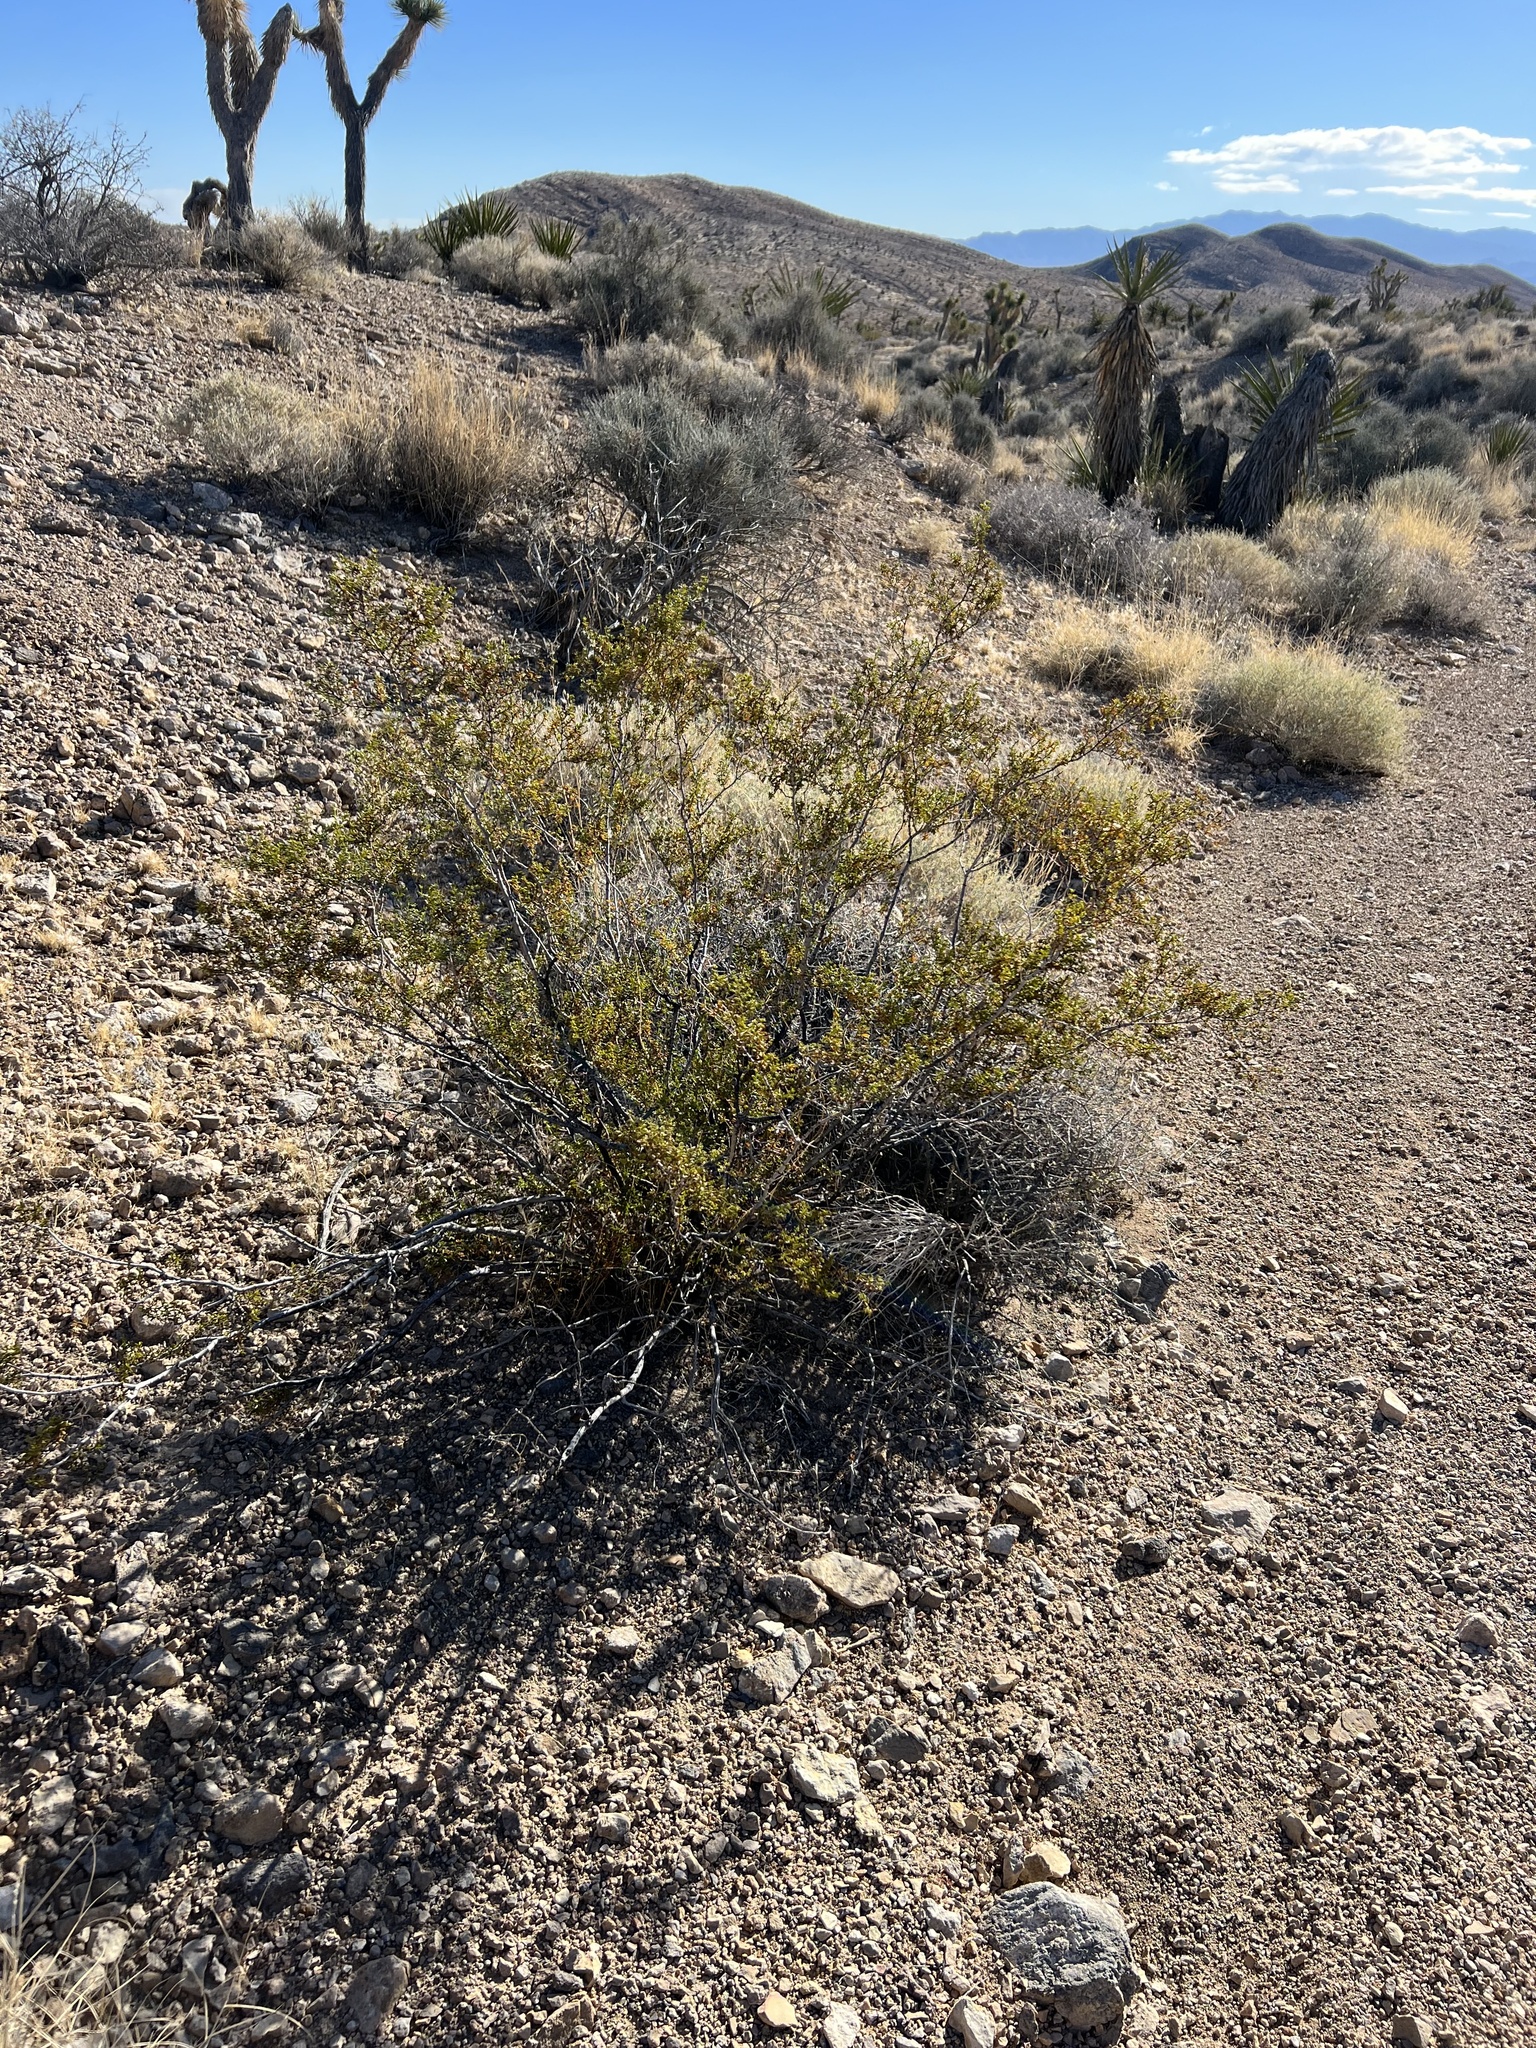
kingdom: Plantae
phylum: Tracheophyta
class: Magnoliopsida
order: Zygophyllales
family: Zygophyllaceae
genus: Larrea
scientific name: Larrea tridentata
